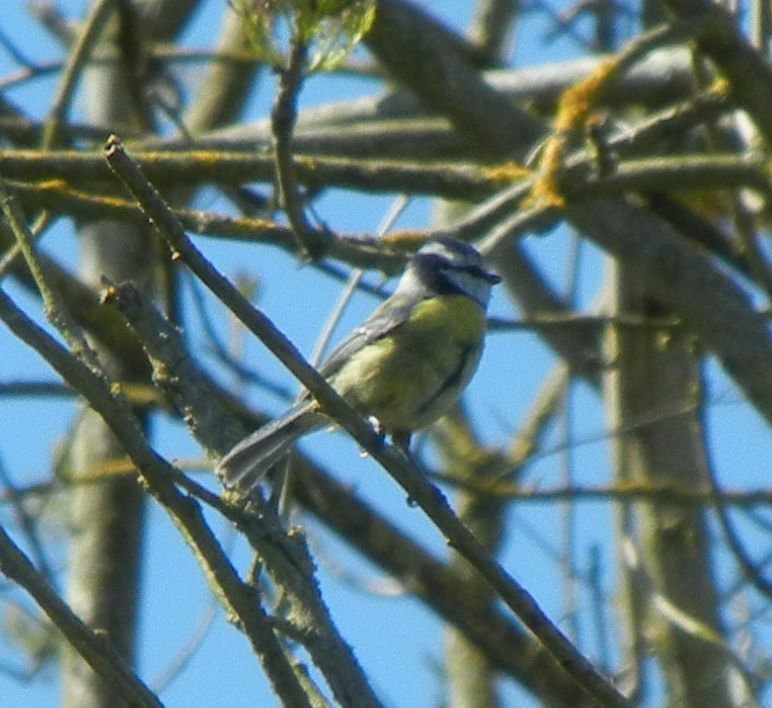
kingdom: Animalia
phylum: Chordata
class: Aves
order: Passeriformes
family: Paridae
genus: Cyanistes
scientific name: Cyanistes caeruleus
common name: Eurasian blue tit
